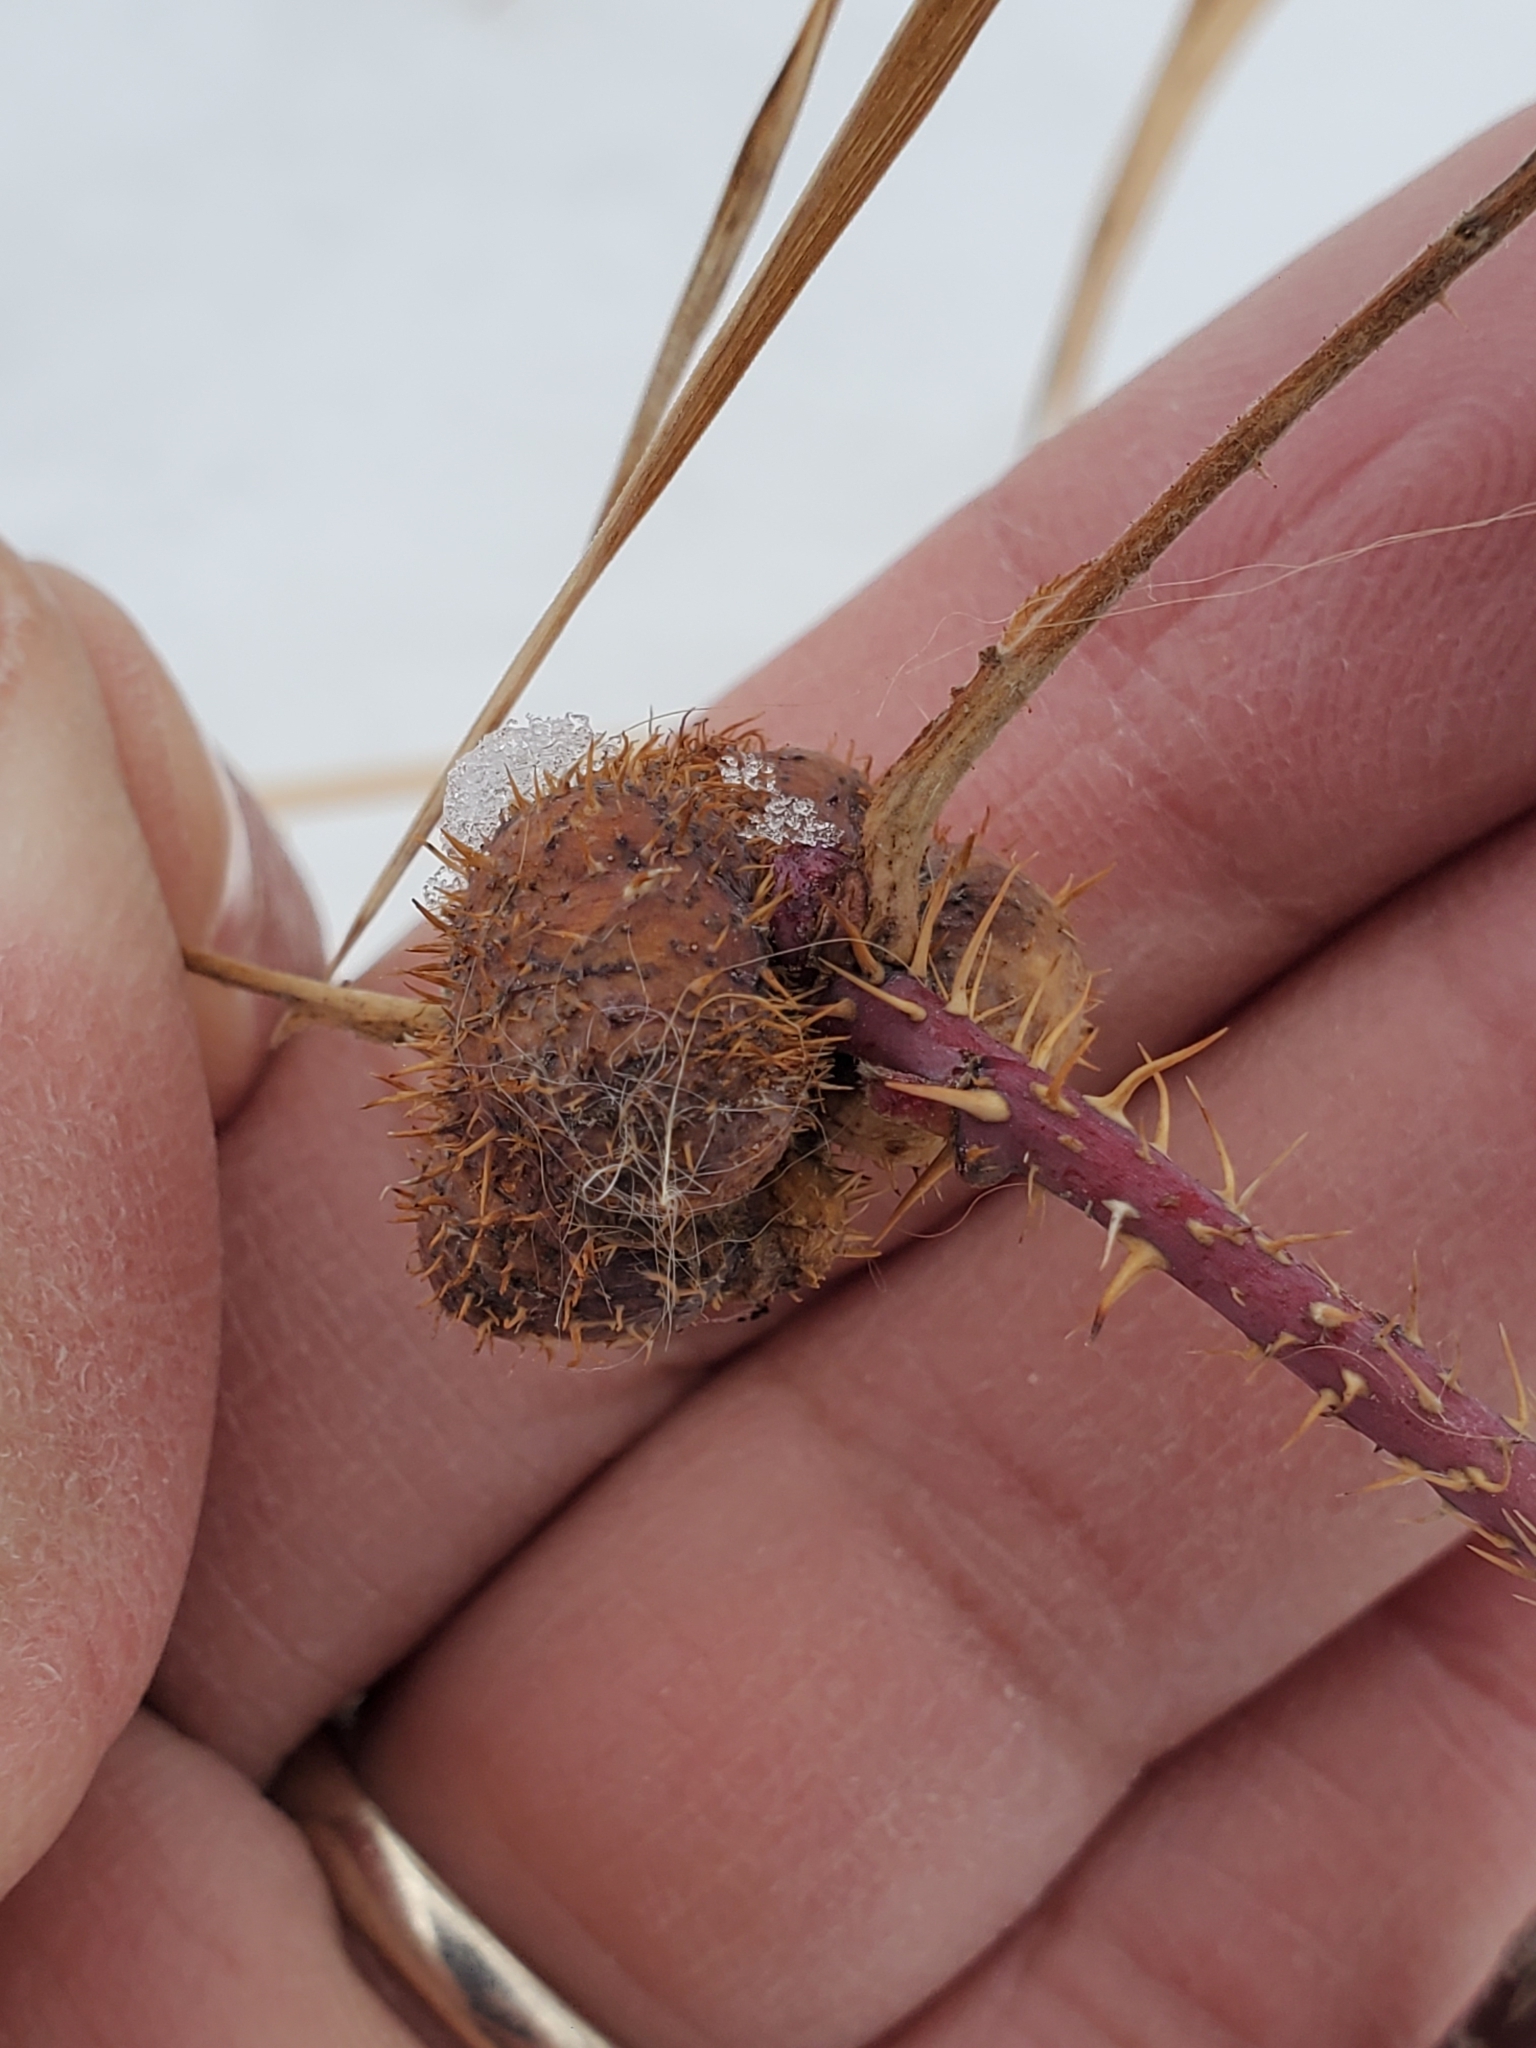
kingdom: Animalia
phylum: Arthropoda
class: Insecta
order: Hymenoptera
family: Cynipidae
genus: Diplolepis
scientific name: Diplolepis spinosa
